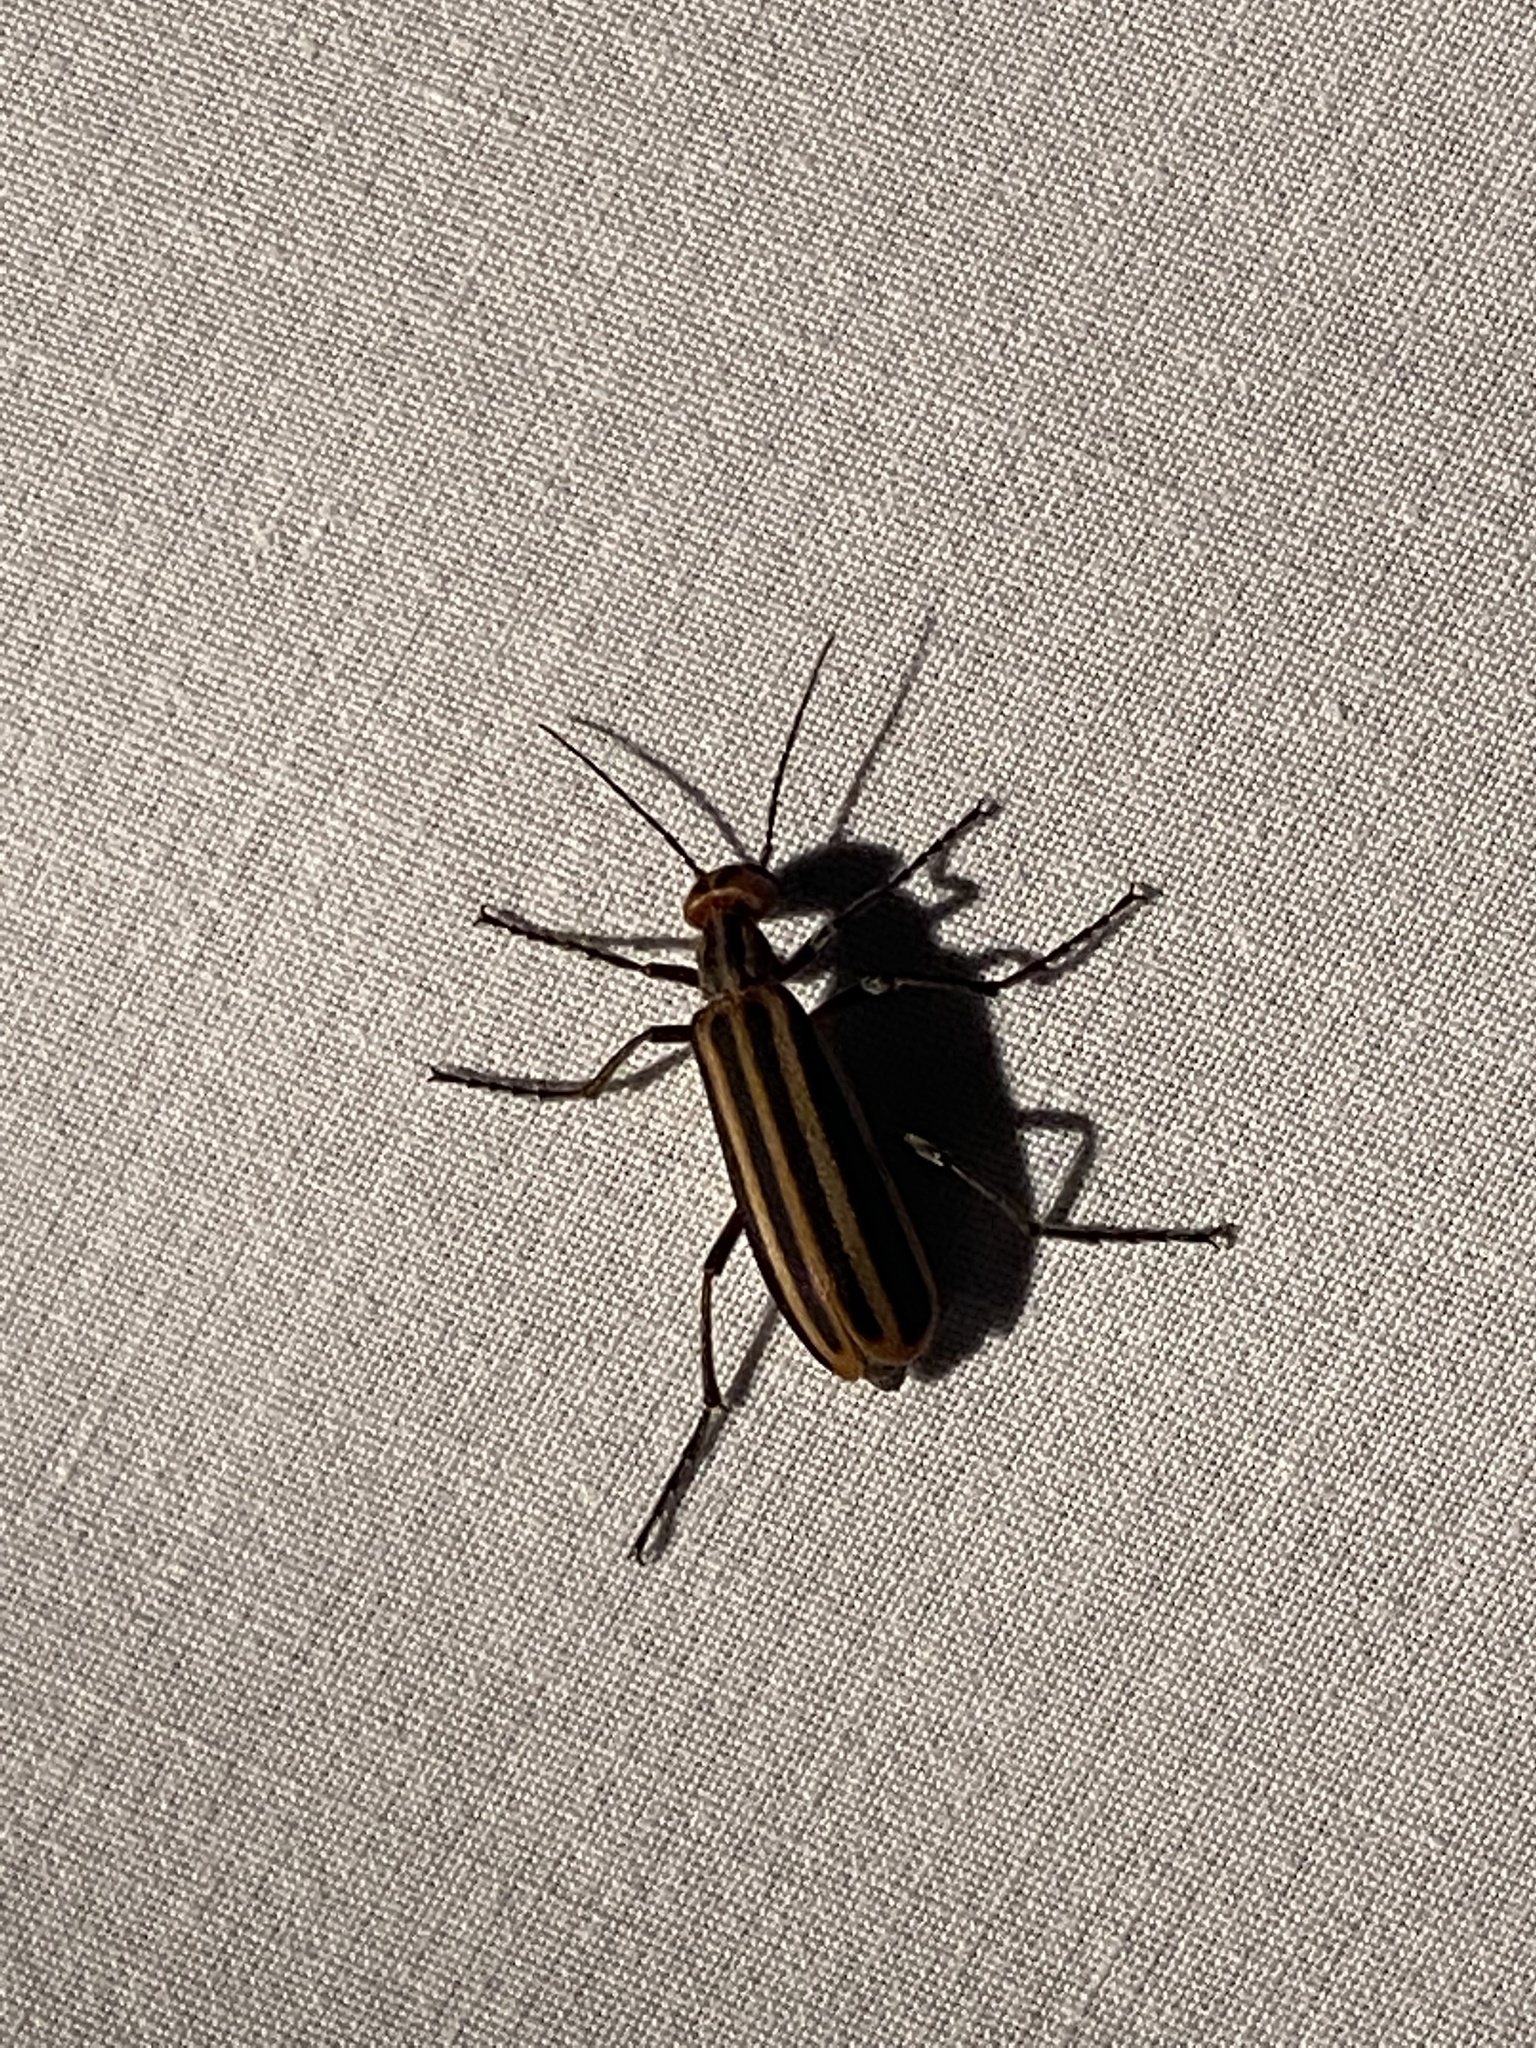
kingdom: Animalia
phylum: Arthropoda
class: Insecta
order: Coleoptera
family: Meloidae
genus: Epicauta
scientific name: Epicauta vittata
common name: Old-fashioned potato beetle
